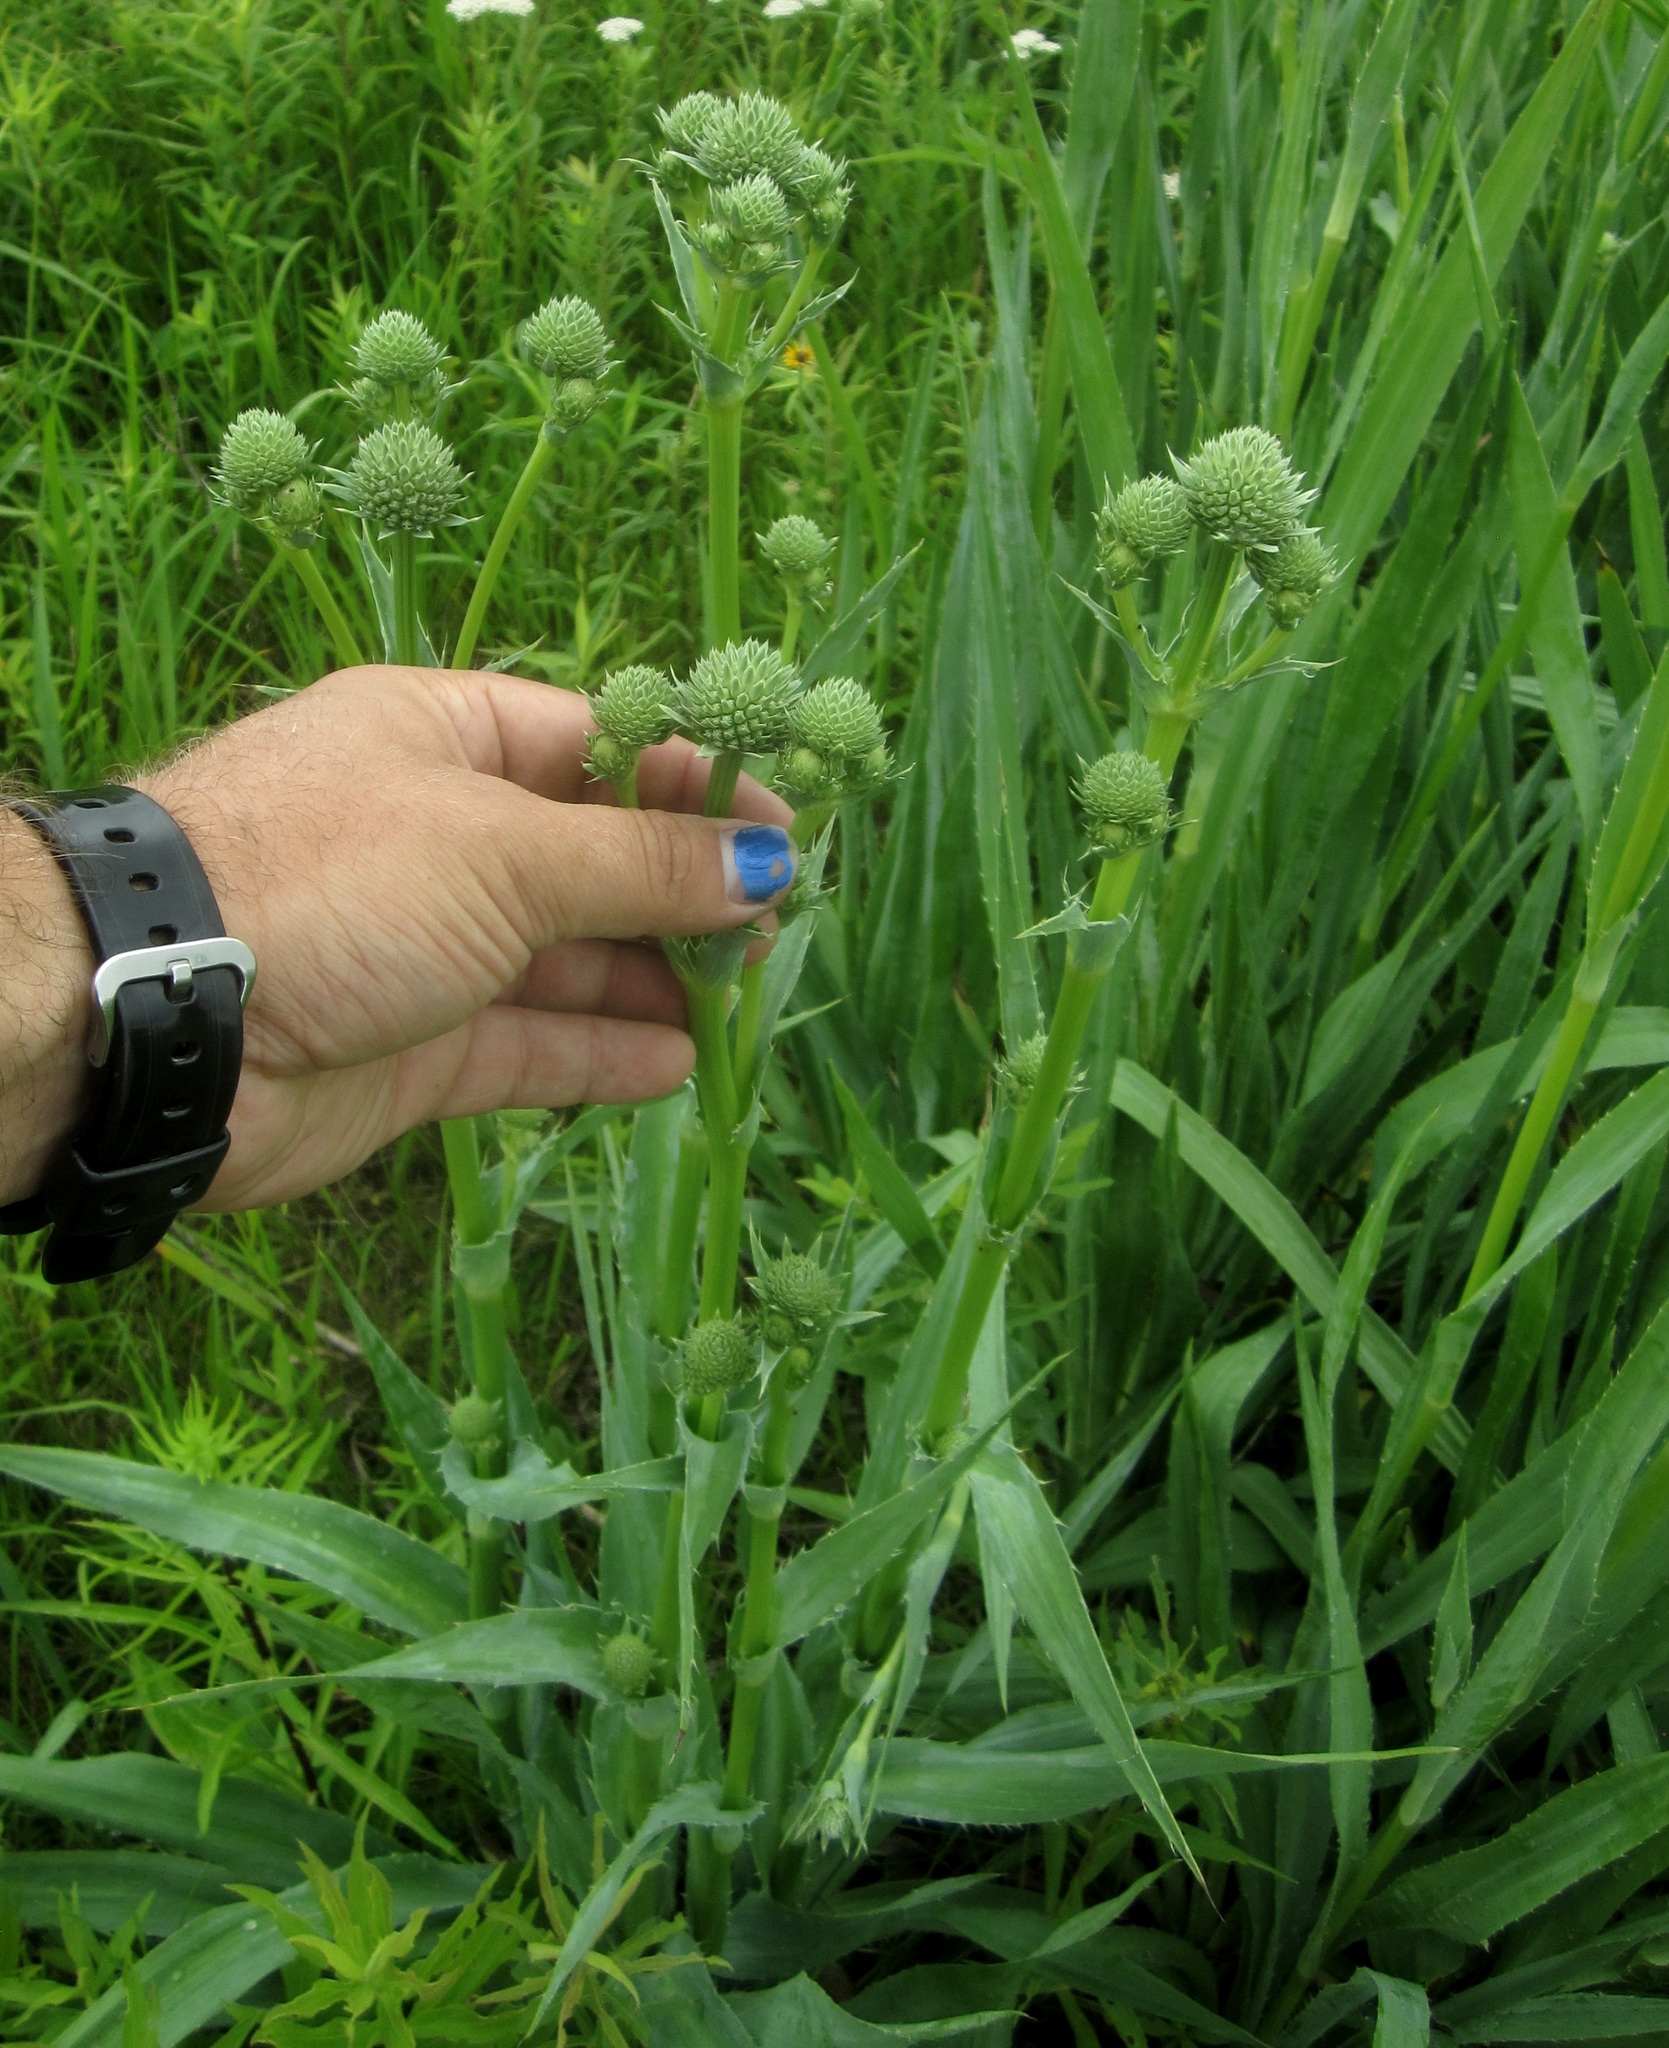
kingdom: Plantae
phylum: Tracheophyta
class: Magnoliopsida
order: Apiales
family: Apiaceae
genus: Eryngium
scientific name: Eryngium yuccifolium
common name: Button eryngo
